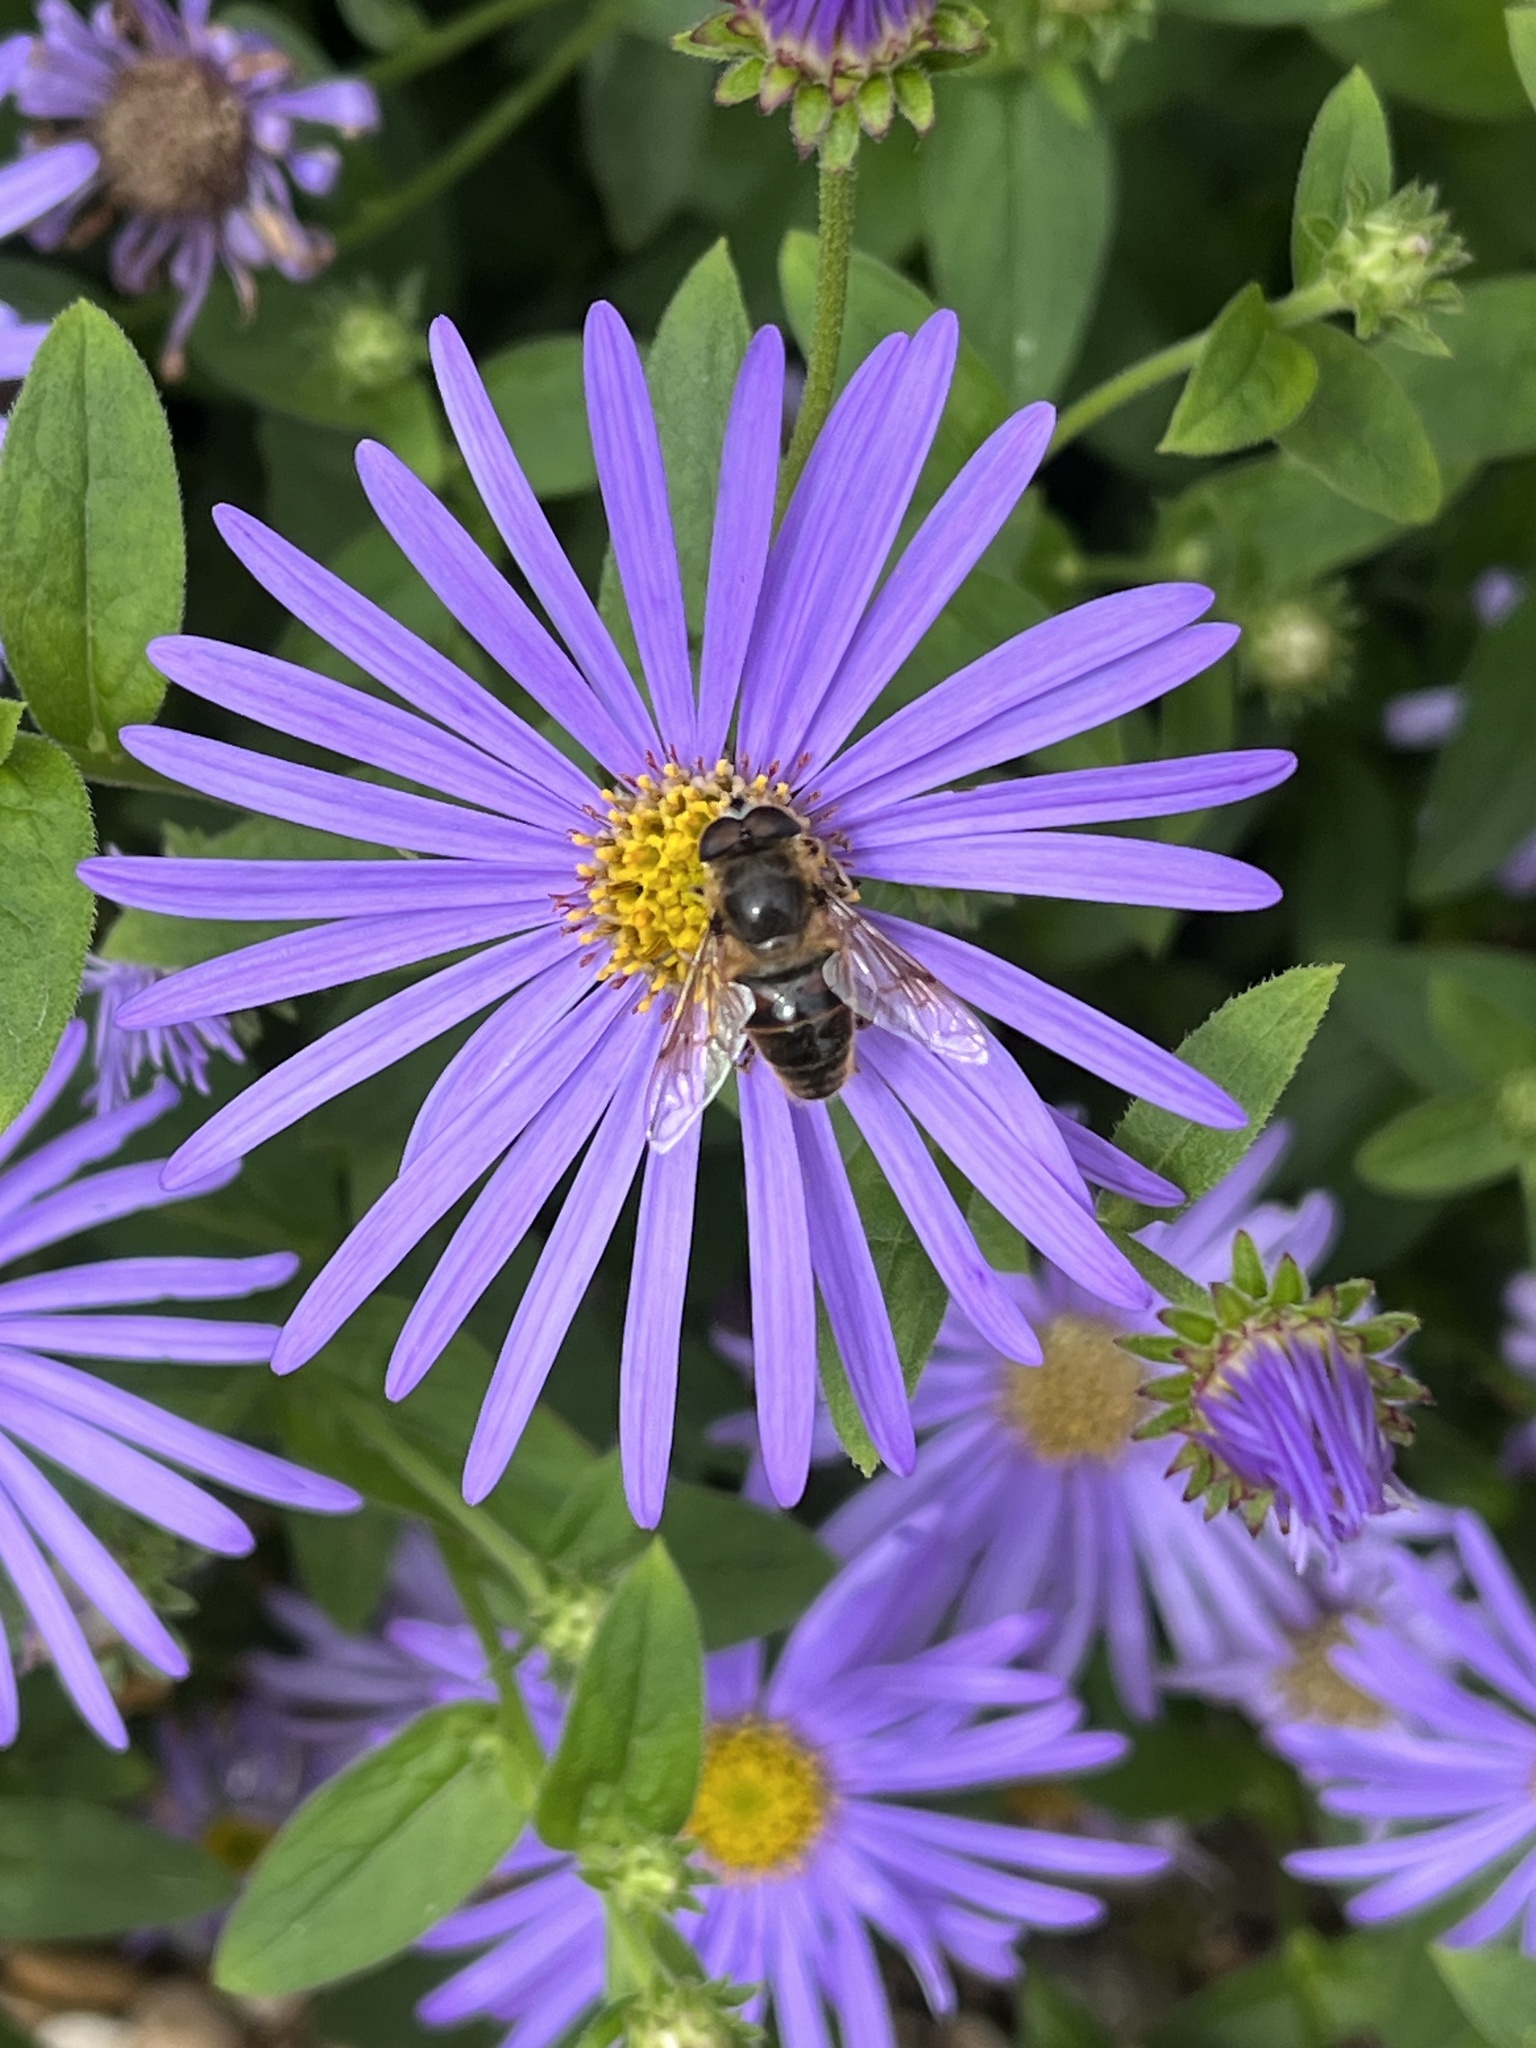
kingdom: Animalia
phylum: Arthropoda
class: Insecta
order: Diptera
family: Syrphidae
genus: Eristalis
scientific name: Eristalis tenax
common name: Drone fly
